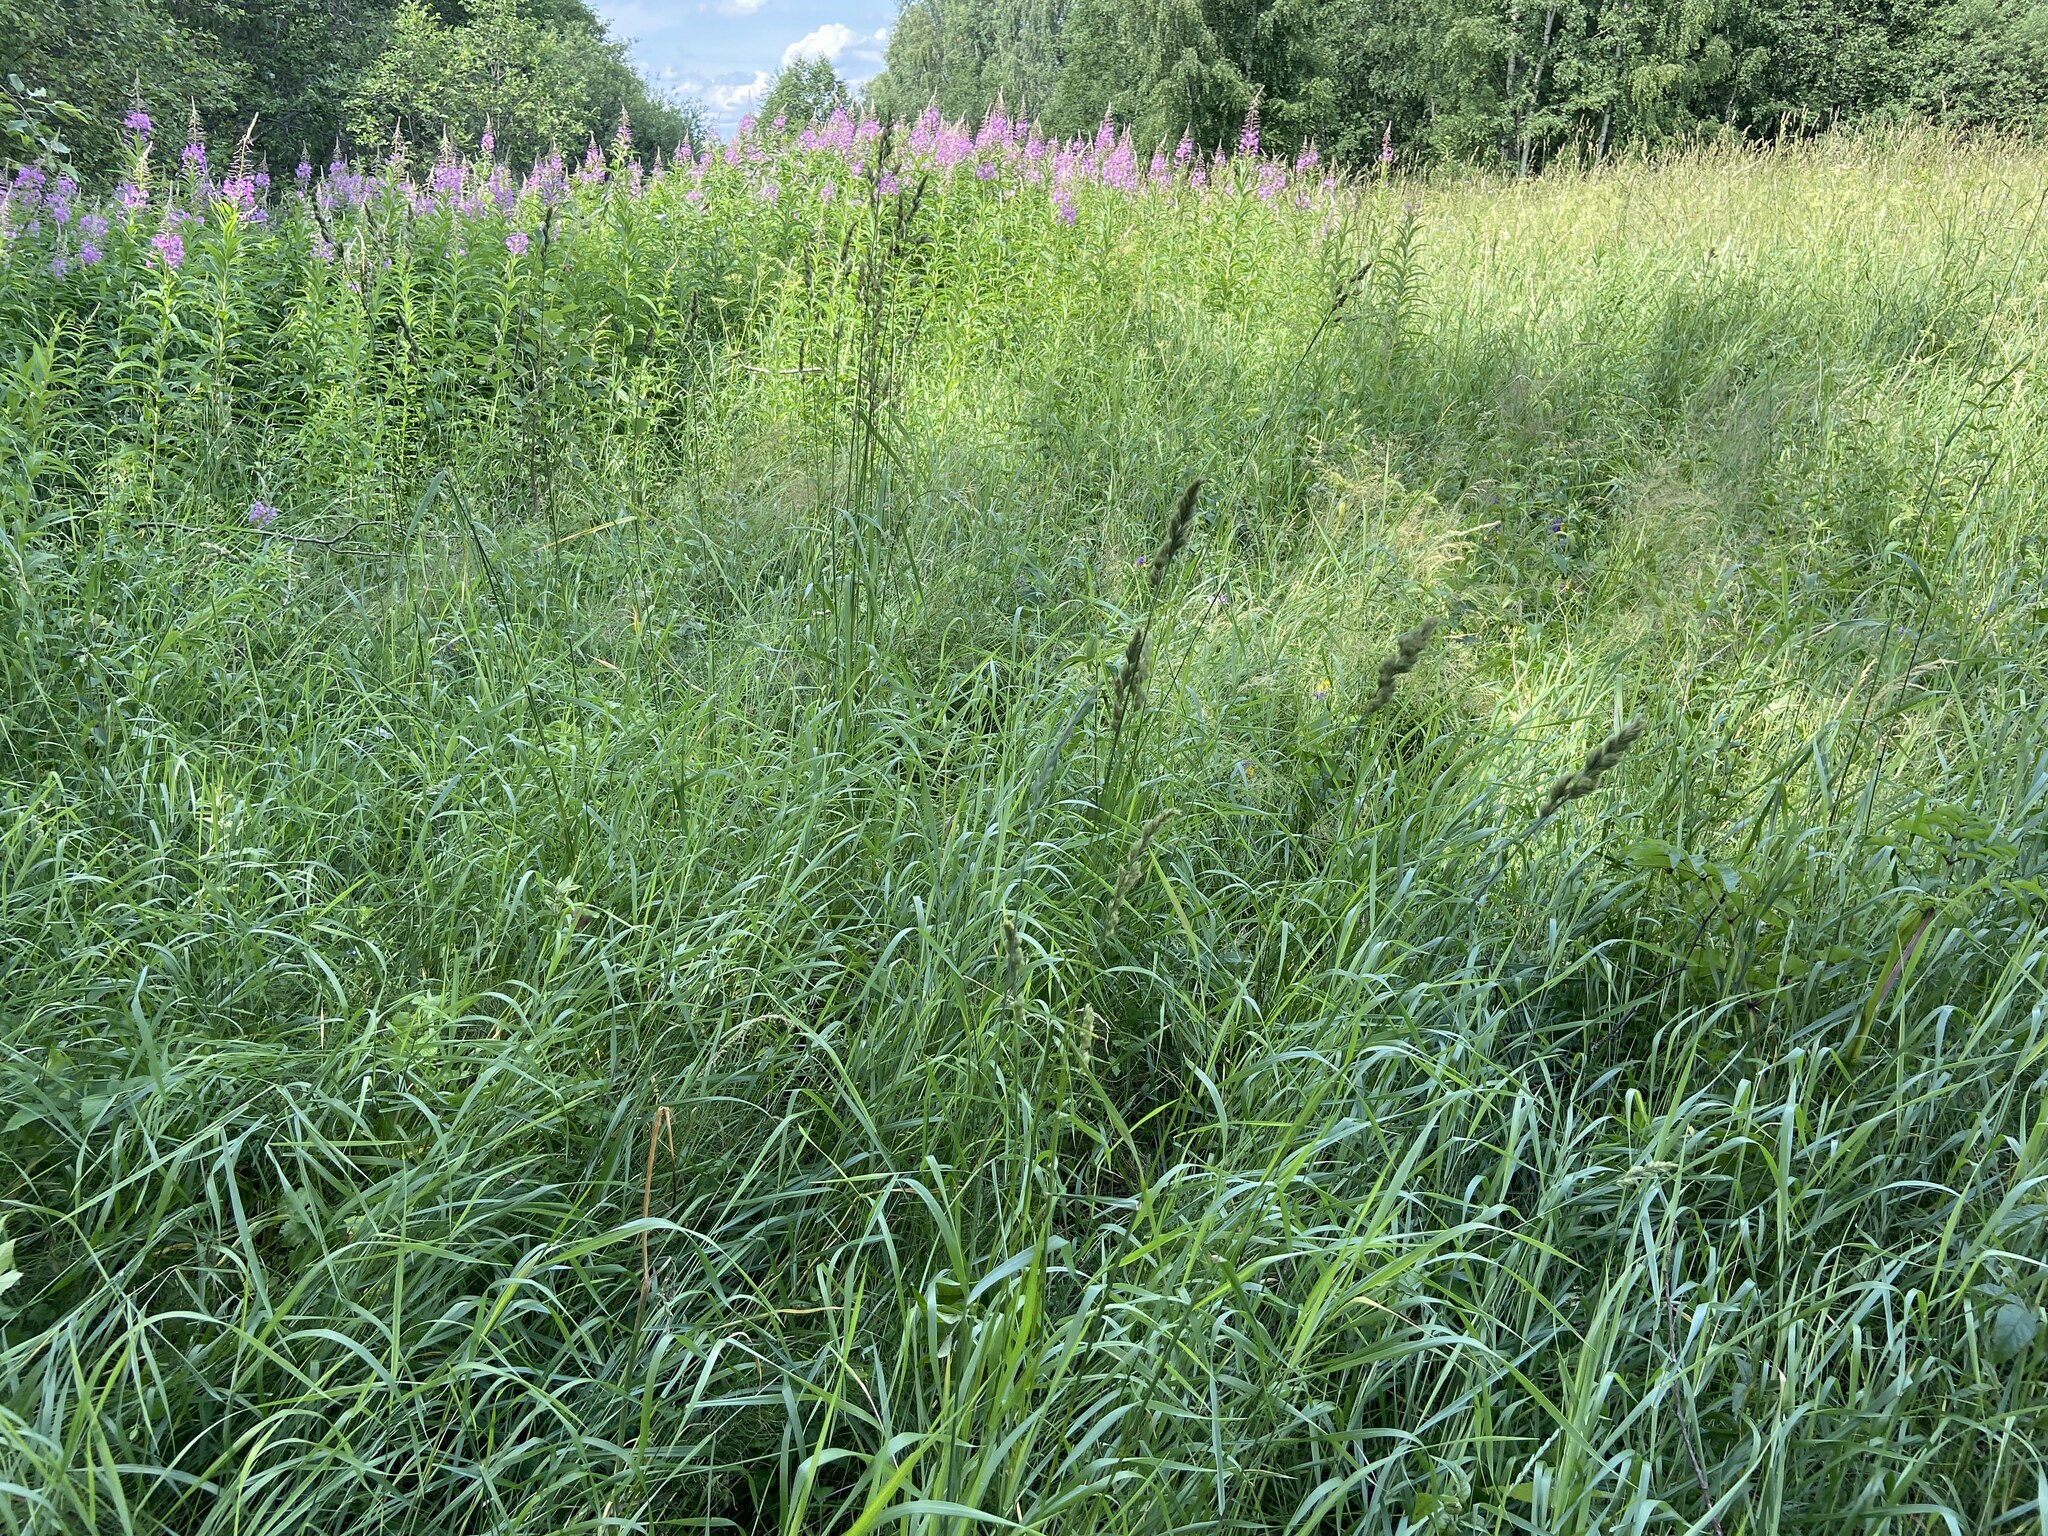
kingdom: Plantae
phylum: Tracheophyta
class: Liliopsida
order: Poales
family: Poaceae
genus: Dactylis
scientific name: Dactylis glomerata
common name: Orchardgrass
